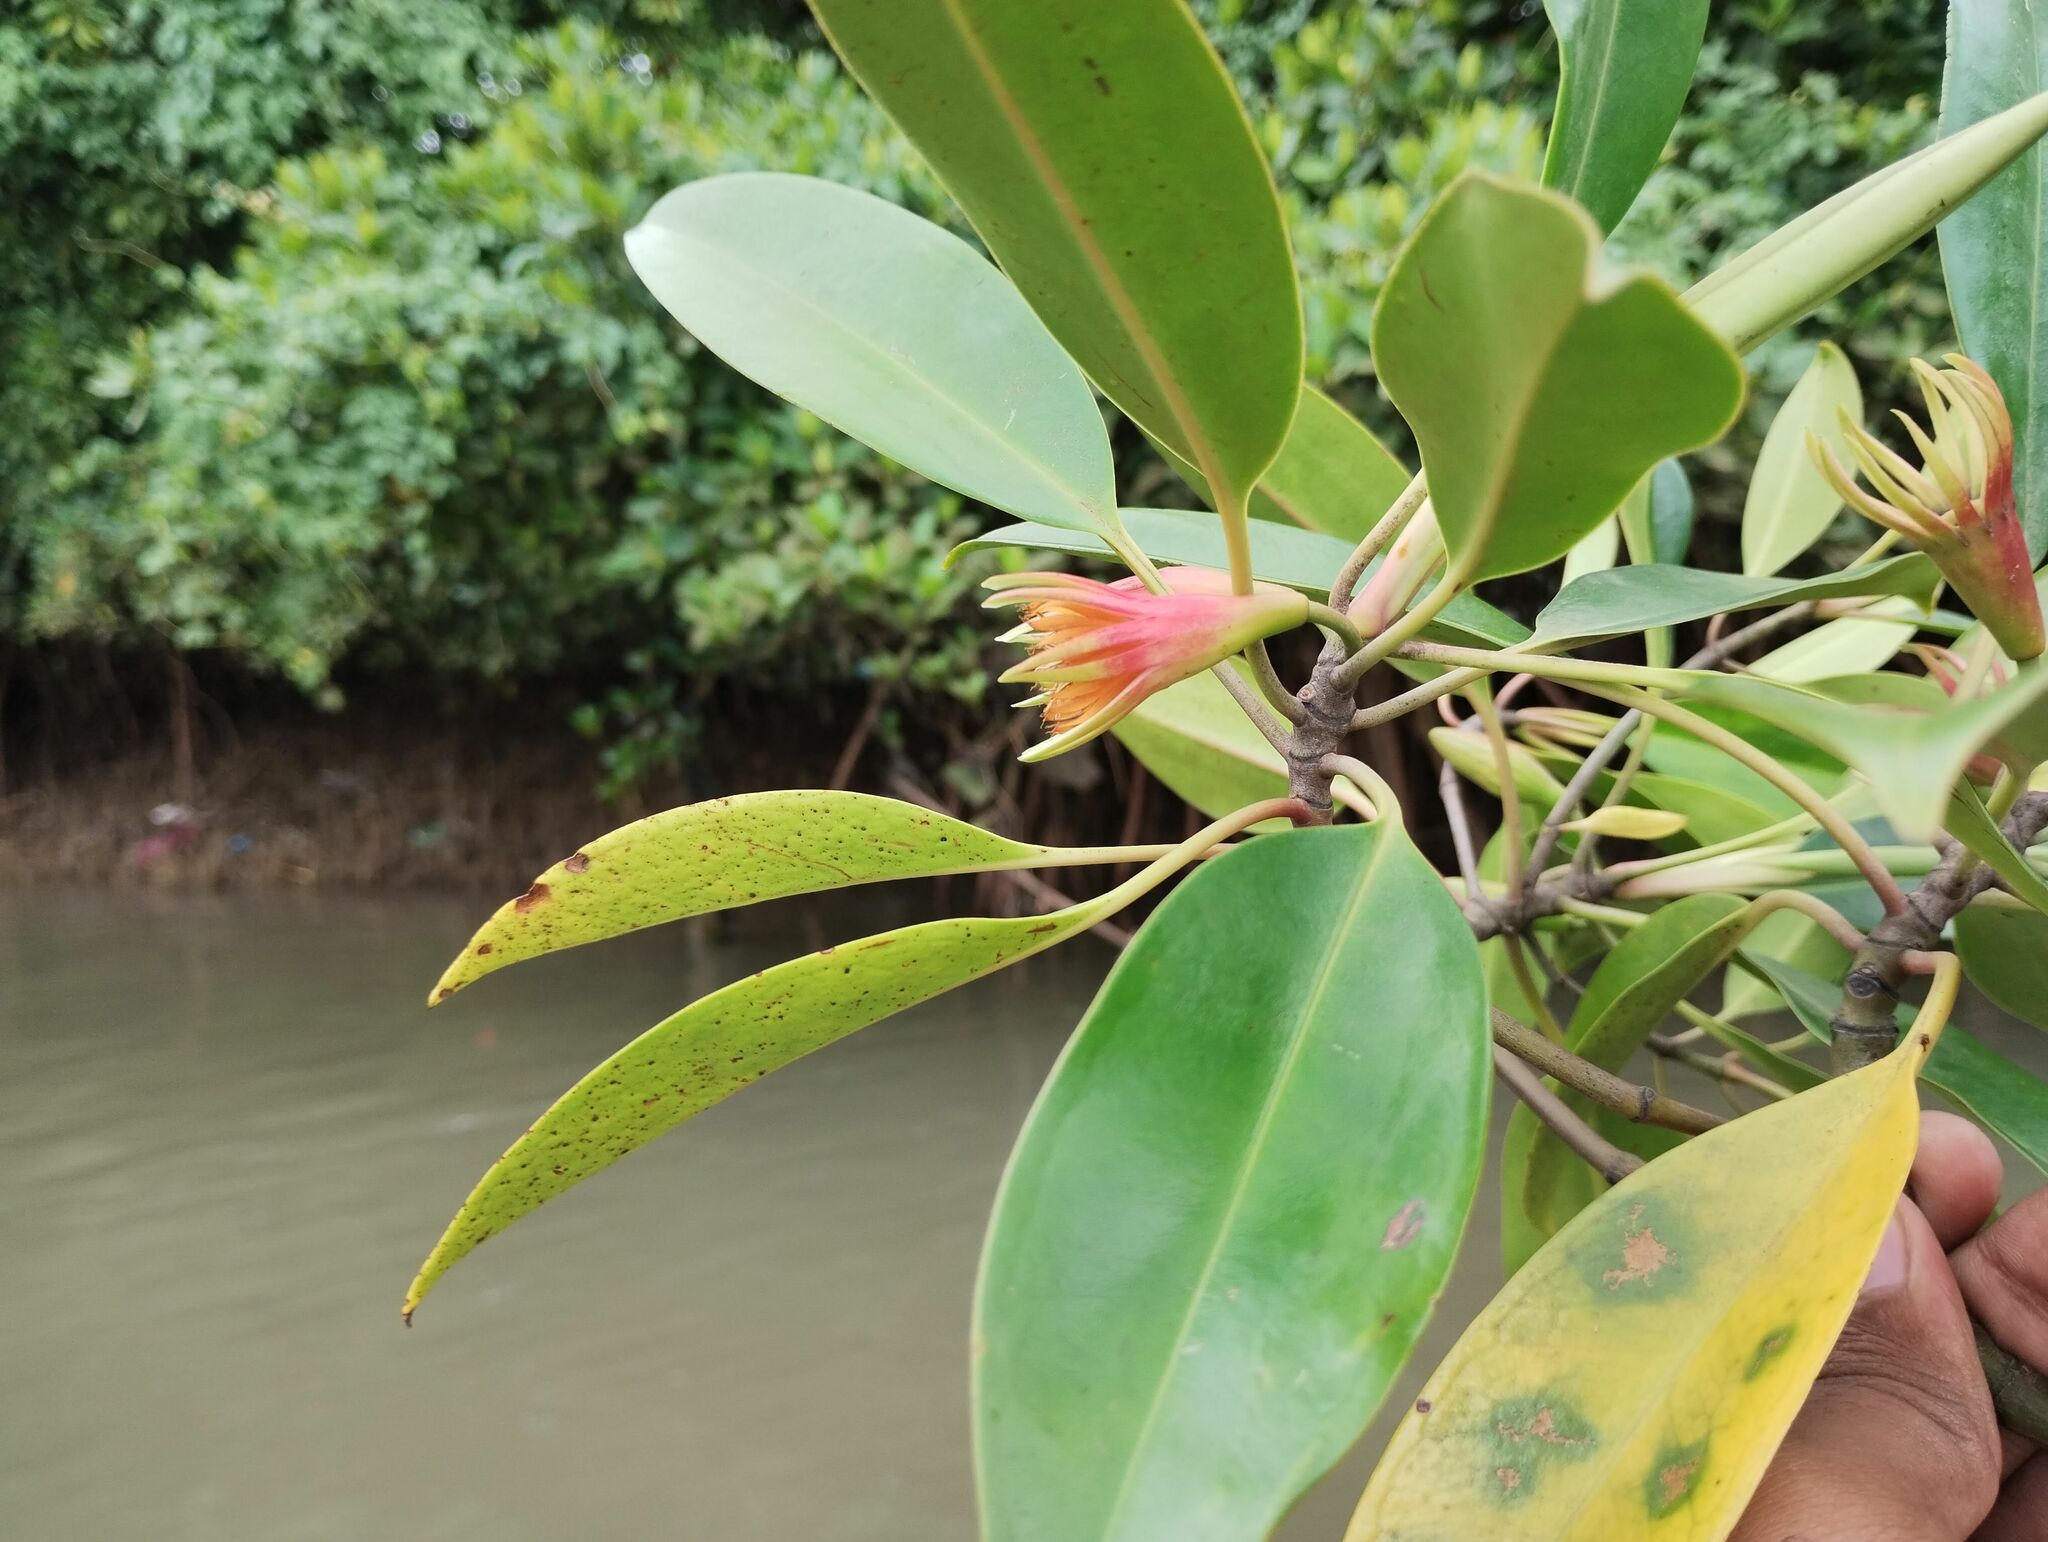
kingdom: Plantae
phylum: Tracheophyta
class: Magnoliopsida
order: Malpighiales
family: Rhizophoraceae
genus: Bruguiera
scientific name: Bruguiera gymnorhiza
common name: Oriental mangrove
